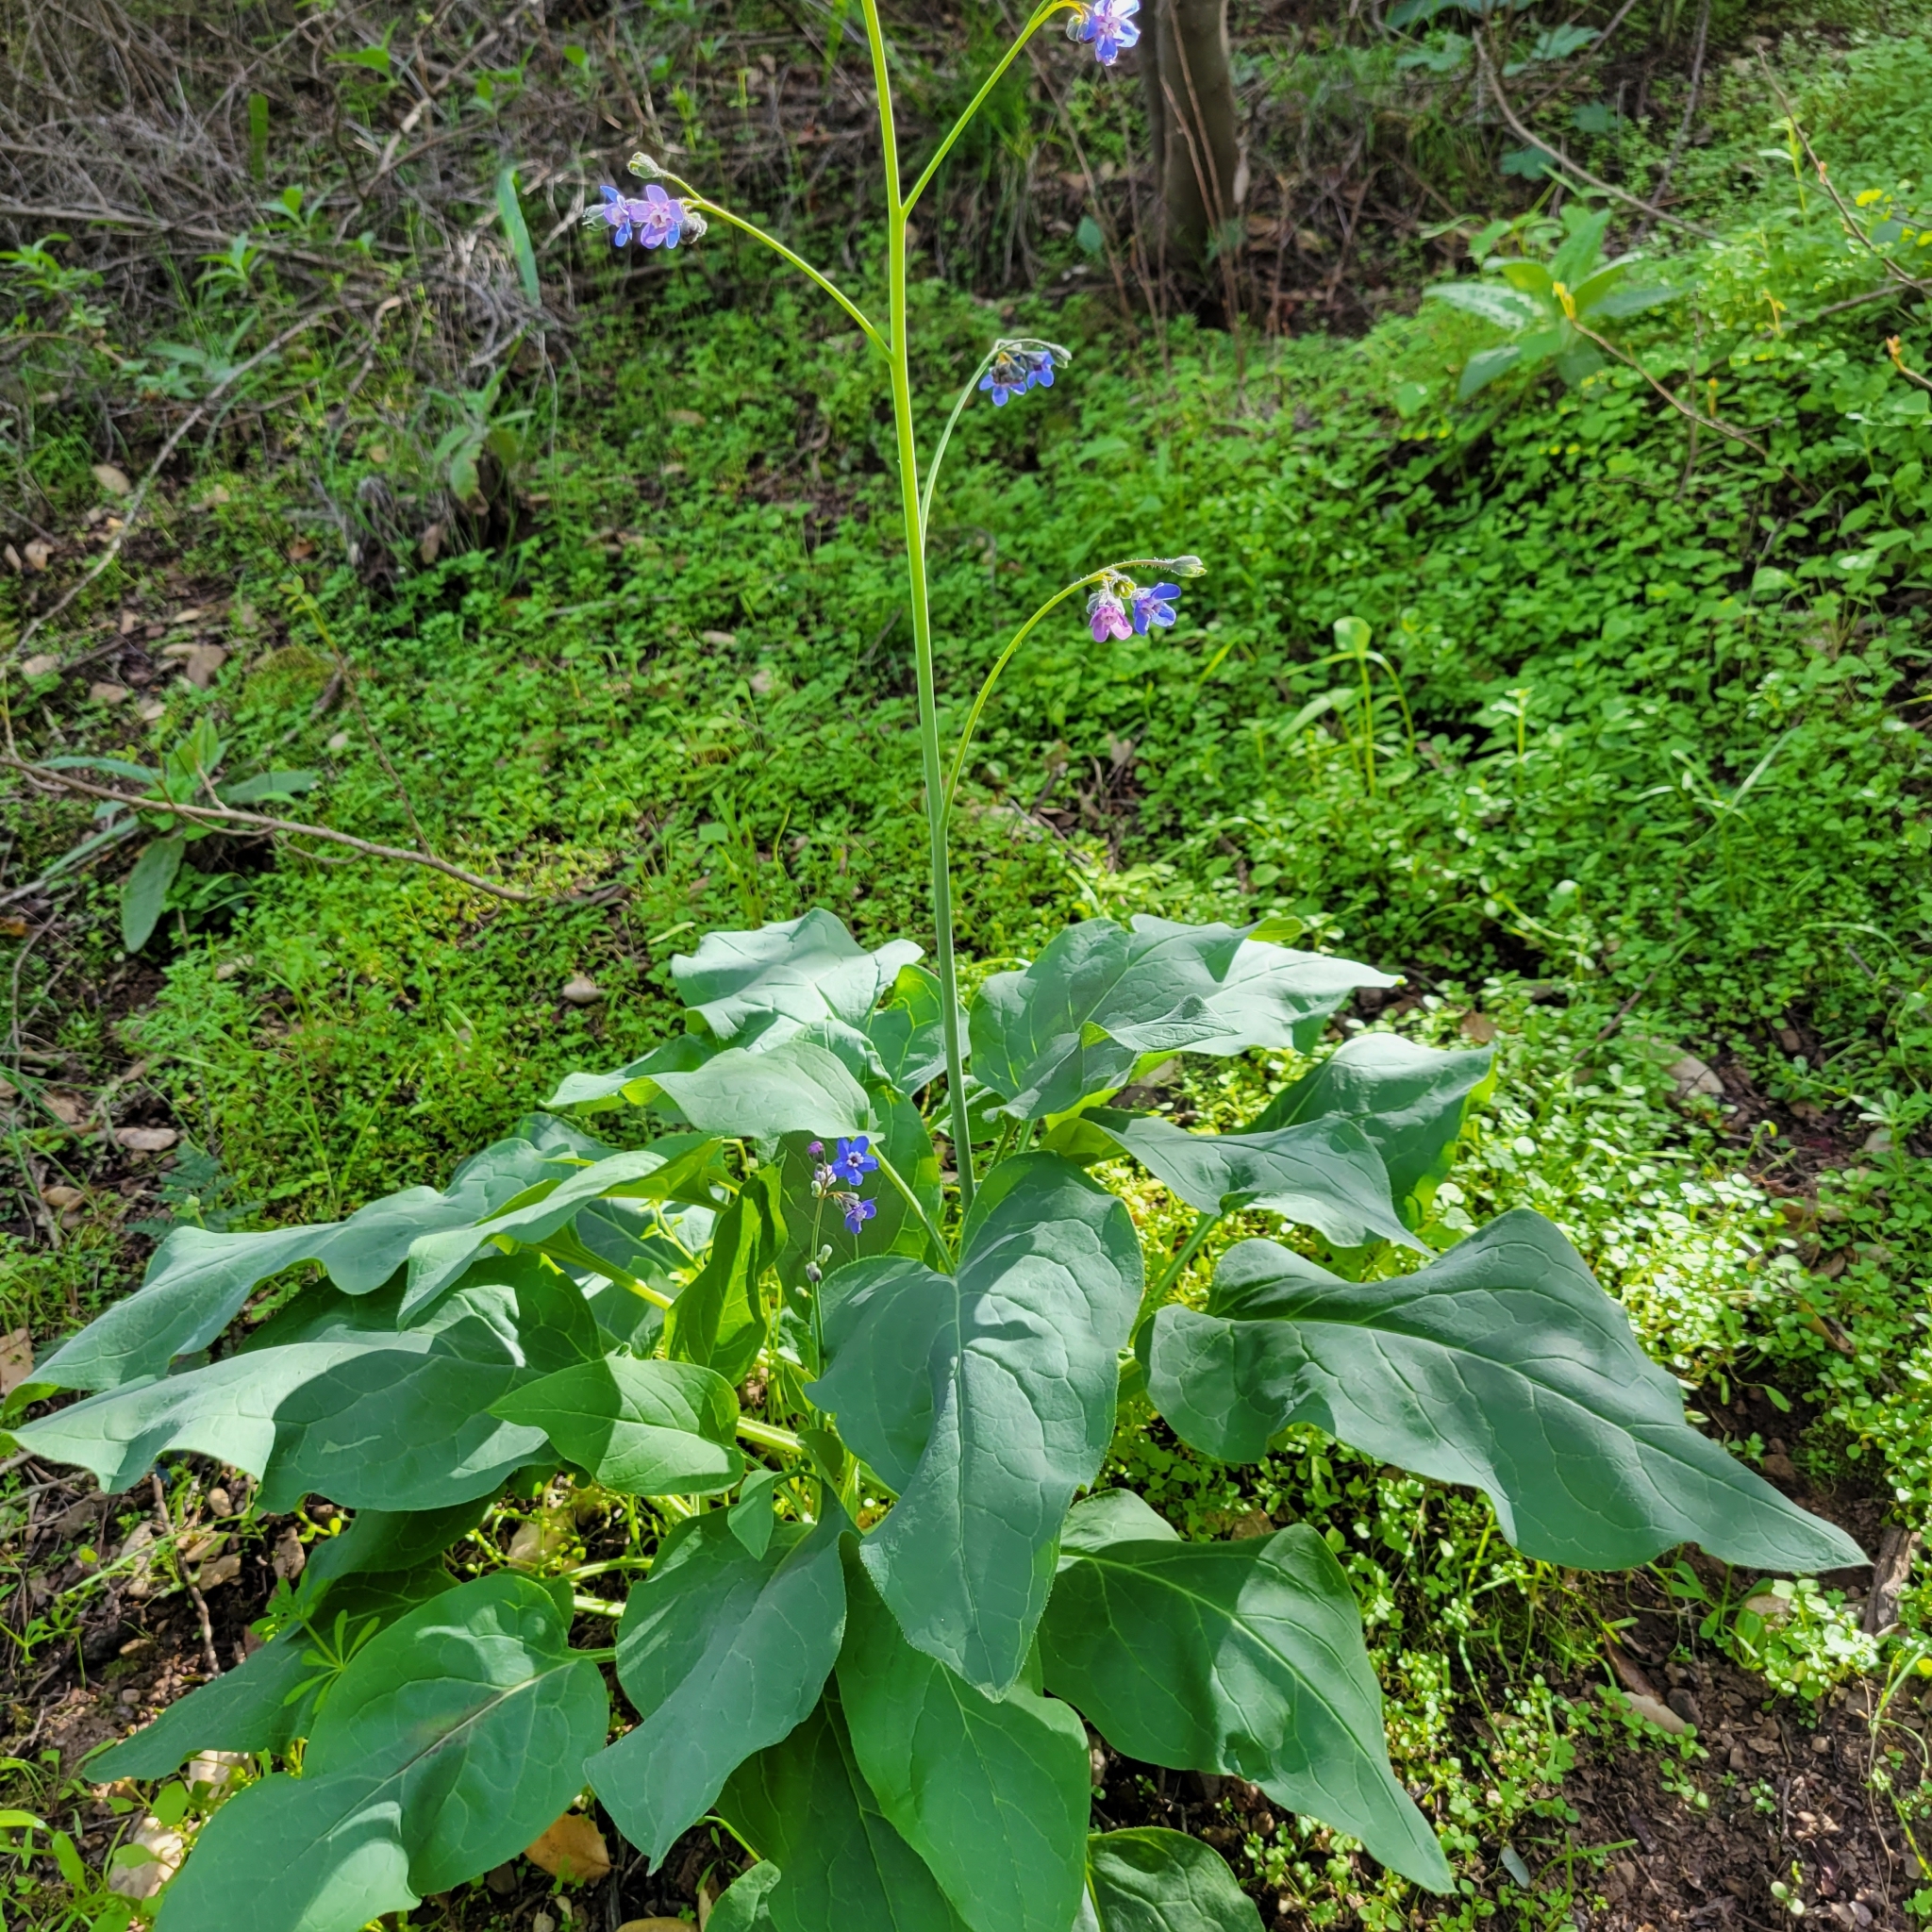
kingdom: Plantae
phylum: Tracheophyta
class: Magnoliopsida
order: Boraginales
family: Boraginaceae
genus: Adelinia
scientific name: Adelinia grande
